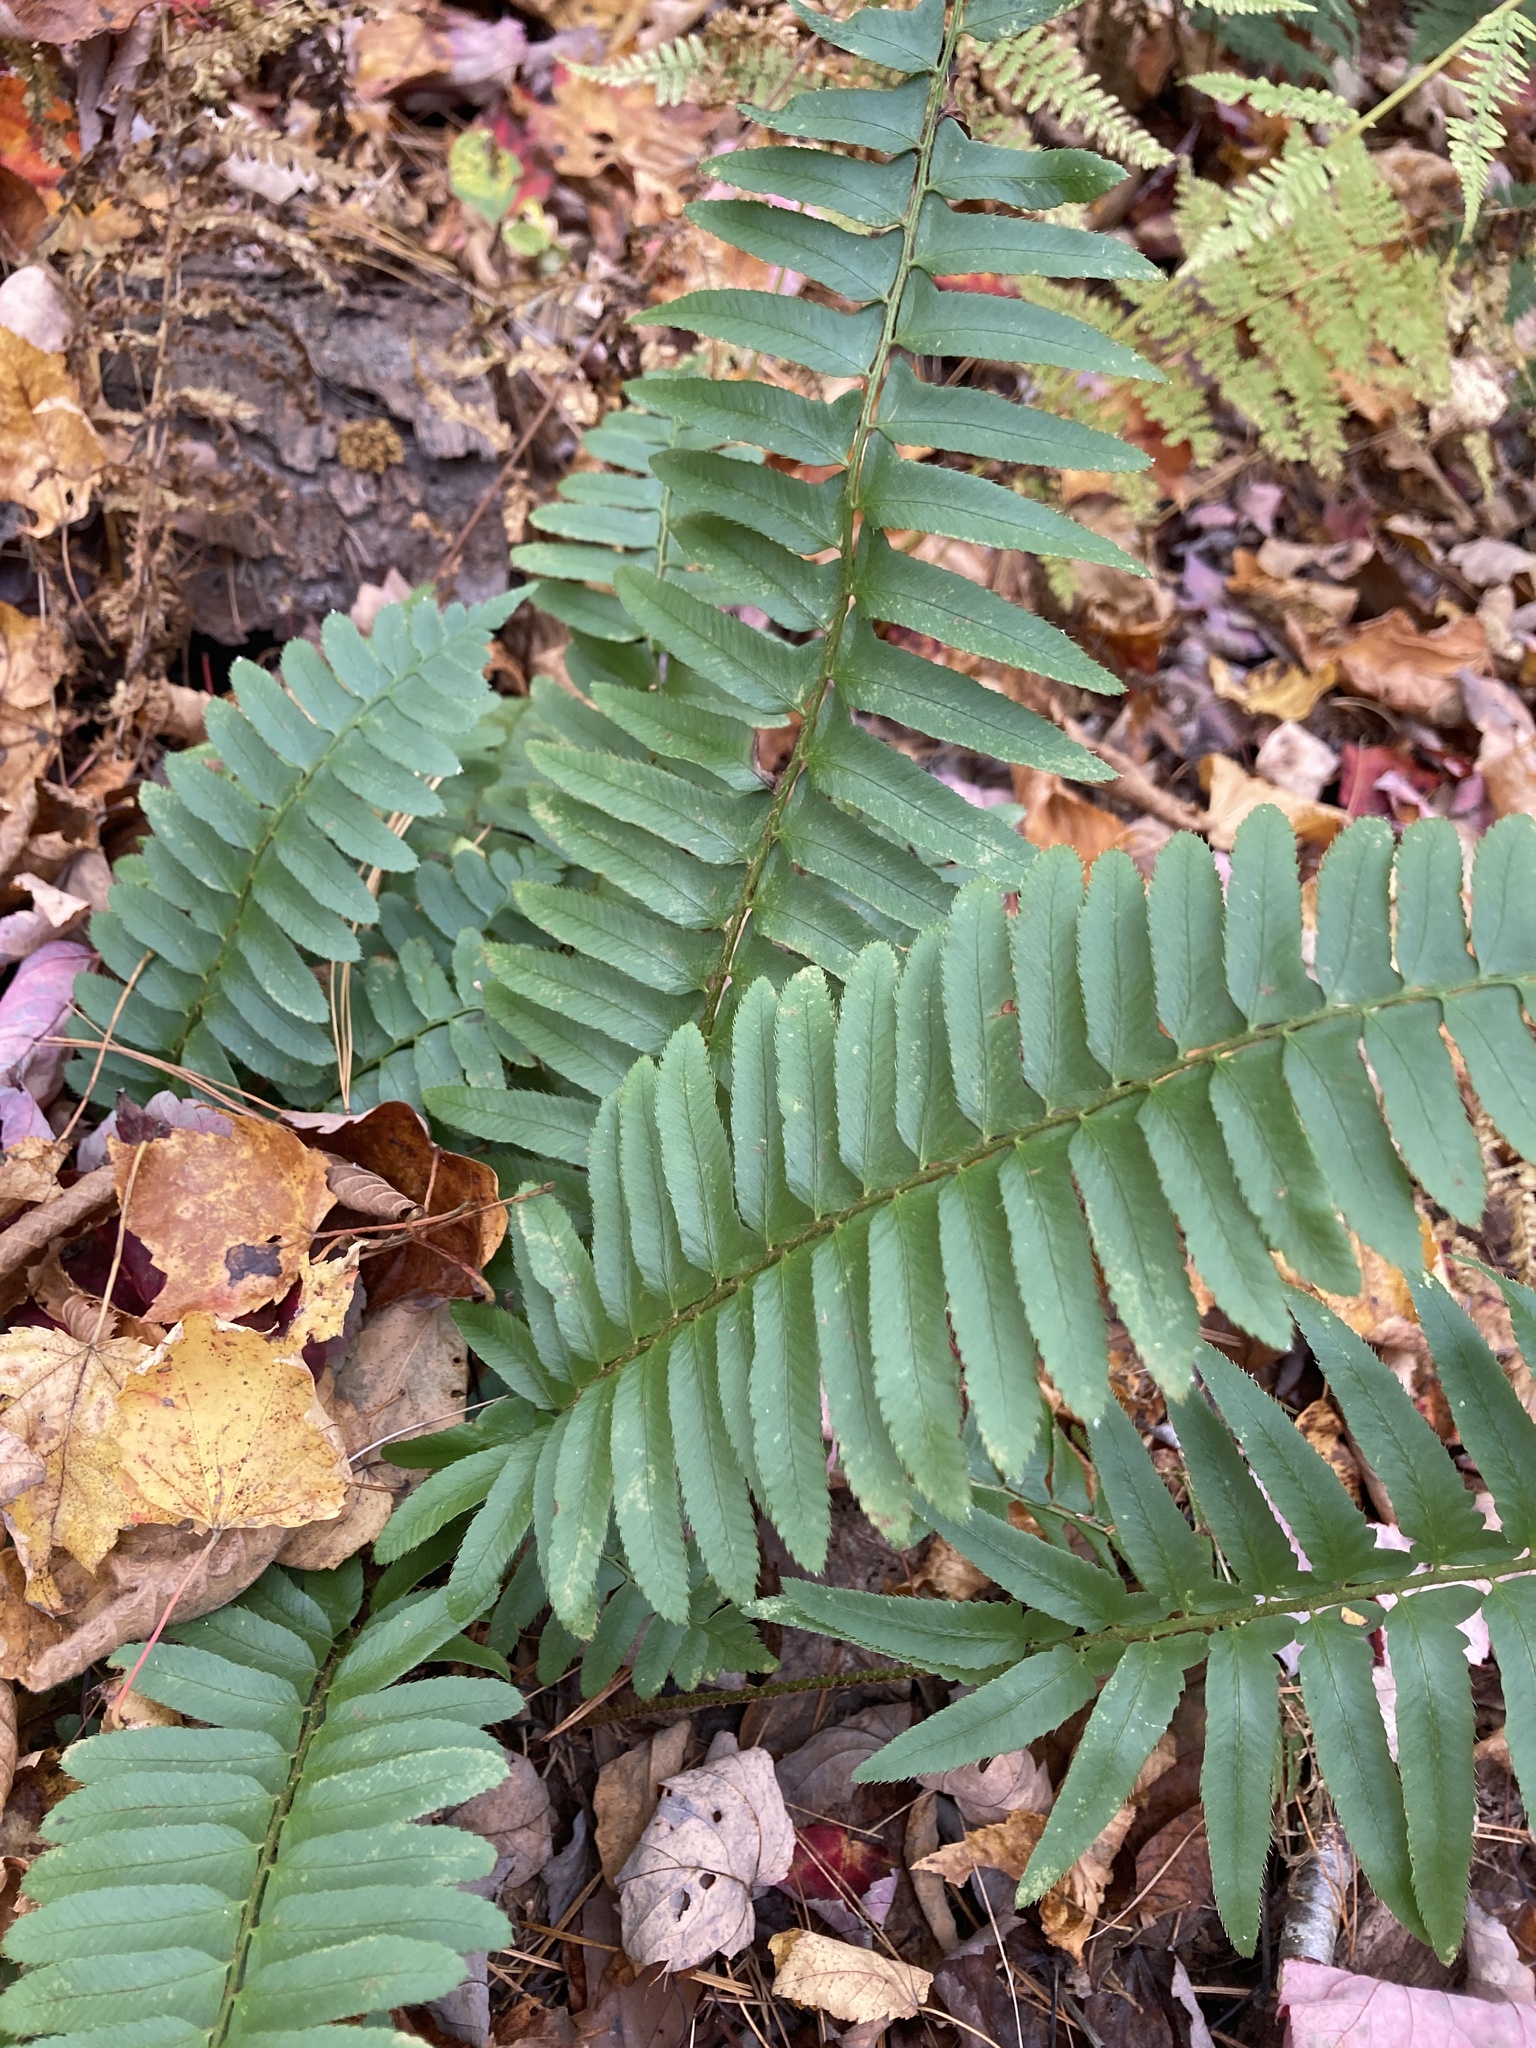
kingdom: Plantae
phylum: Tracheophyta
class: Polypodiopsida
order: Polypodiales
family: Dryopteridaceae
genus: Polystichum
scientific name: Polystichum acrostichoides
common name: Christmas fern
